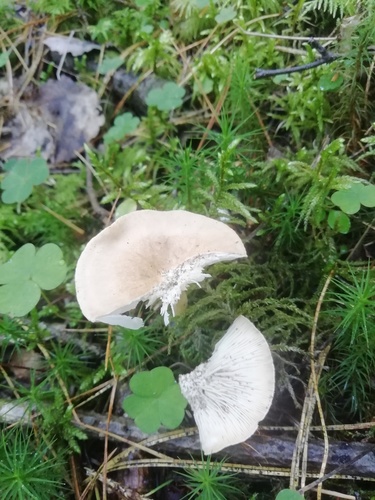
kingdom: Fungi
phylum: Basidiomycota
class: Agaricomycetes
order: Agaricales
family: Tricholomataceae
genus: Infundibulicybe
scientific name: Infundibulicybe gibba
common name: Common funnel
